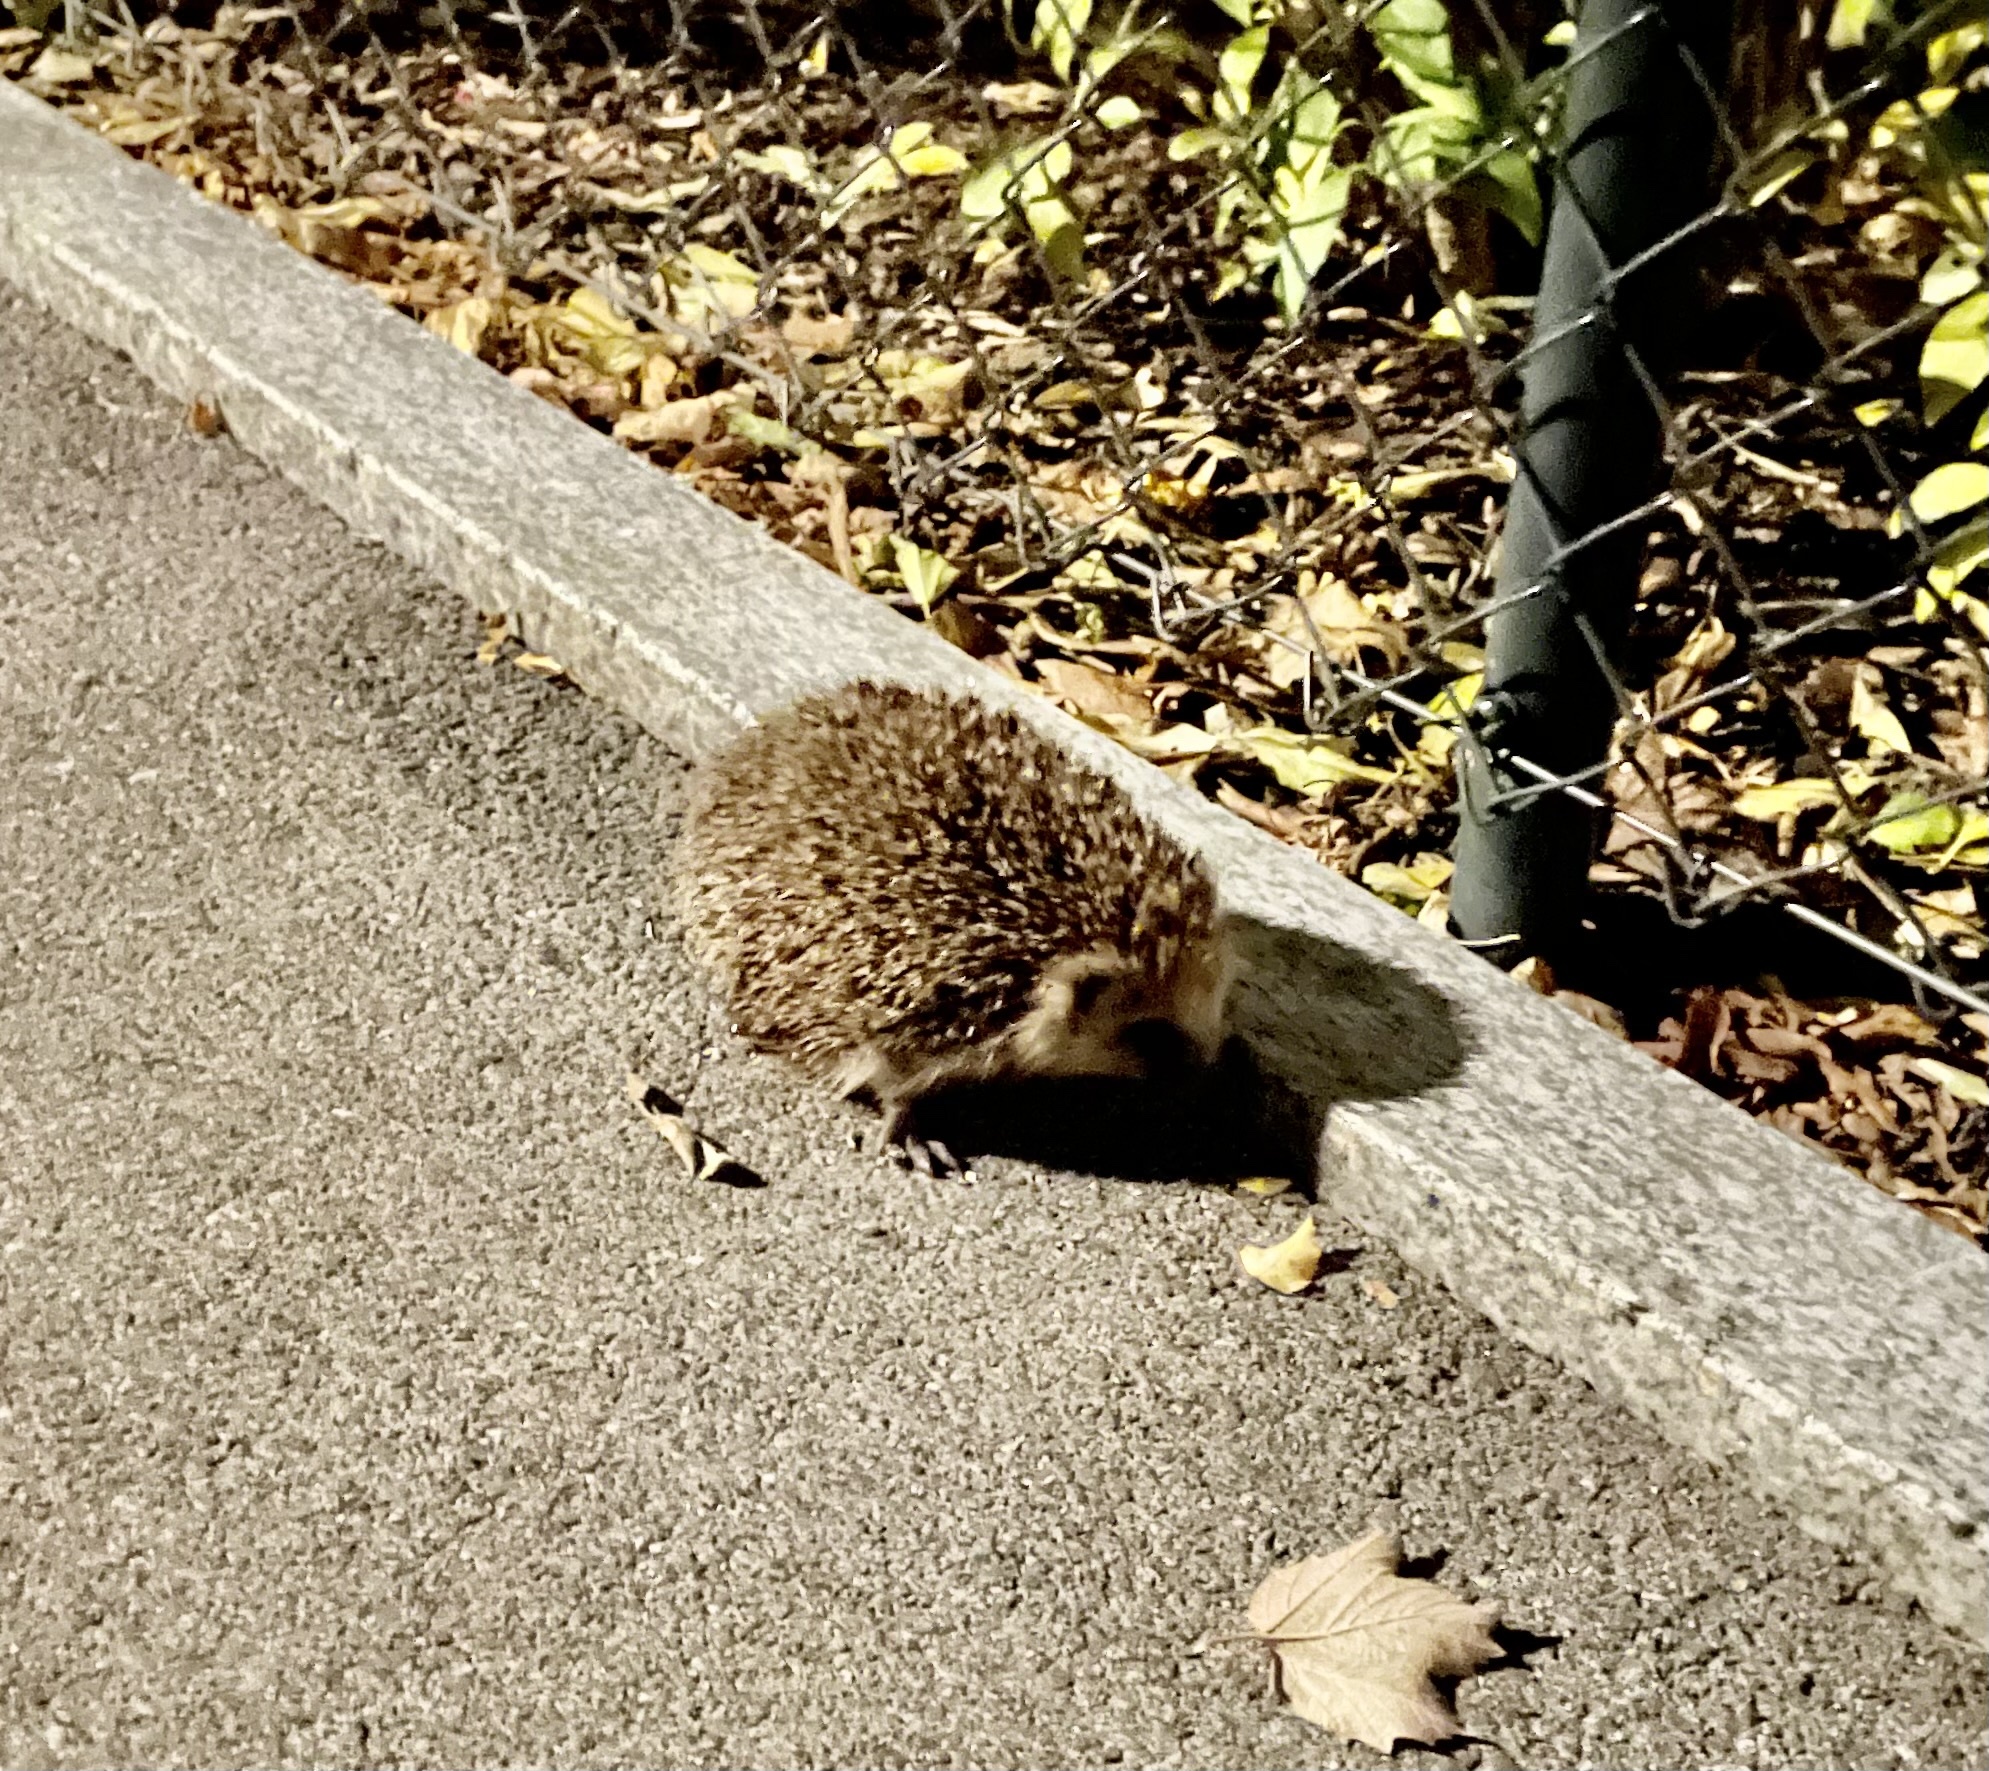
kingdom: Animalia
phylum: Chordata
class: Mammalia
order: Erinaceomorpha
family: Erinaceidae
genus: Erinaceus
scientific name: Erinaceus europaeus
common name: West european hedgehog
